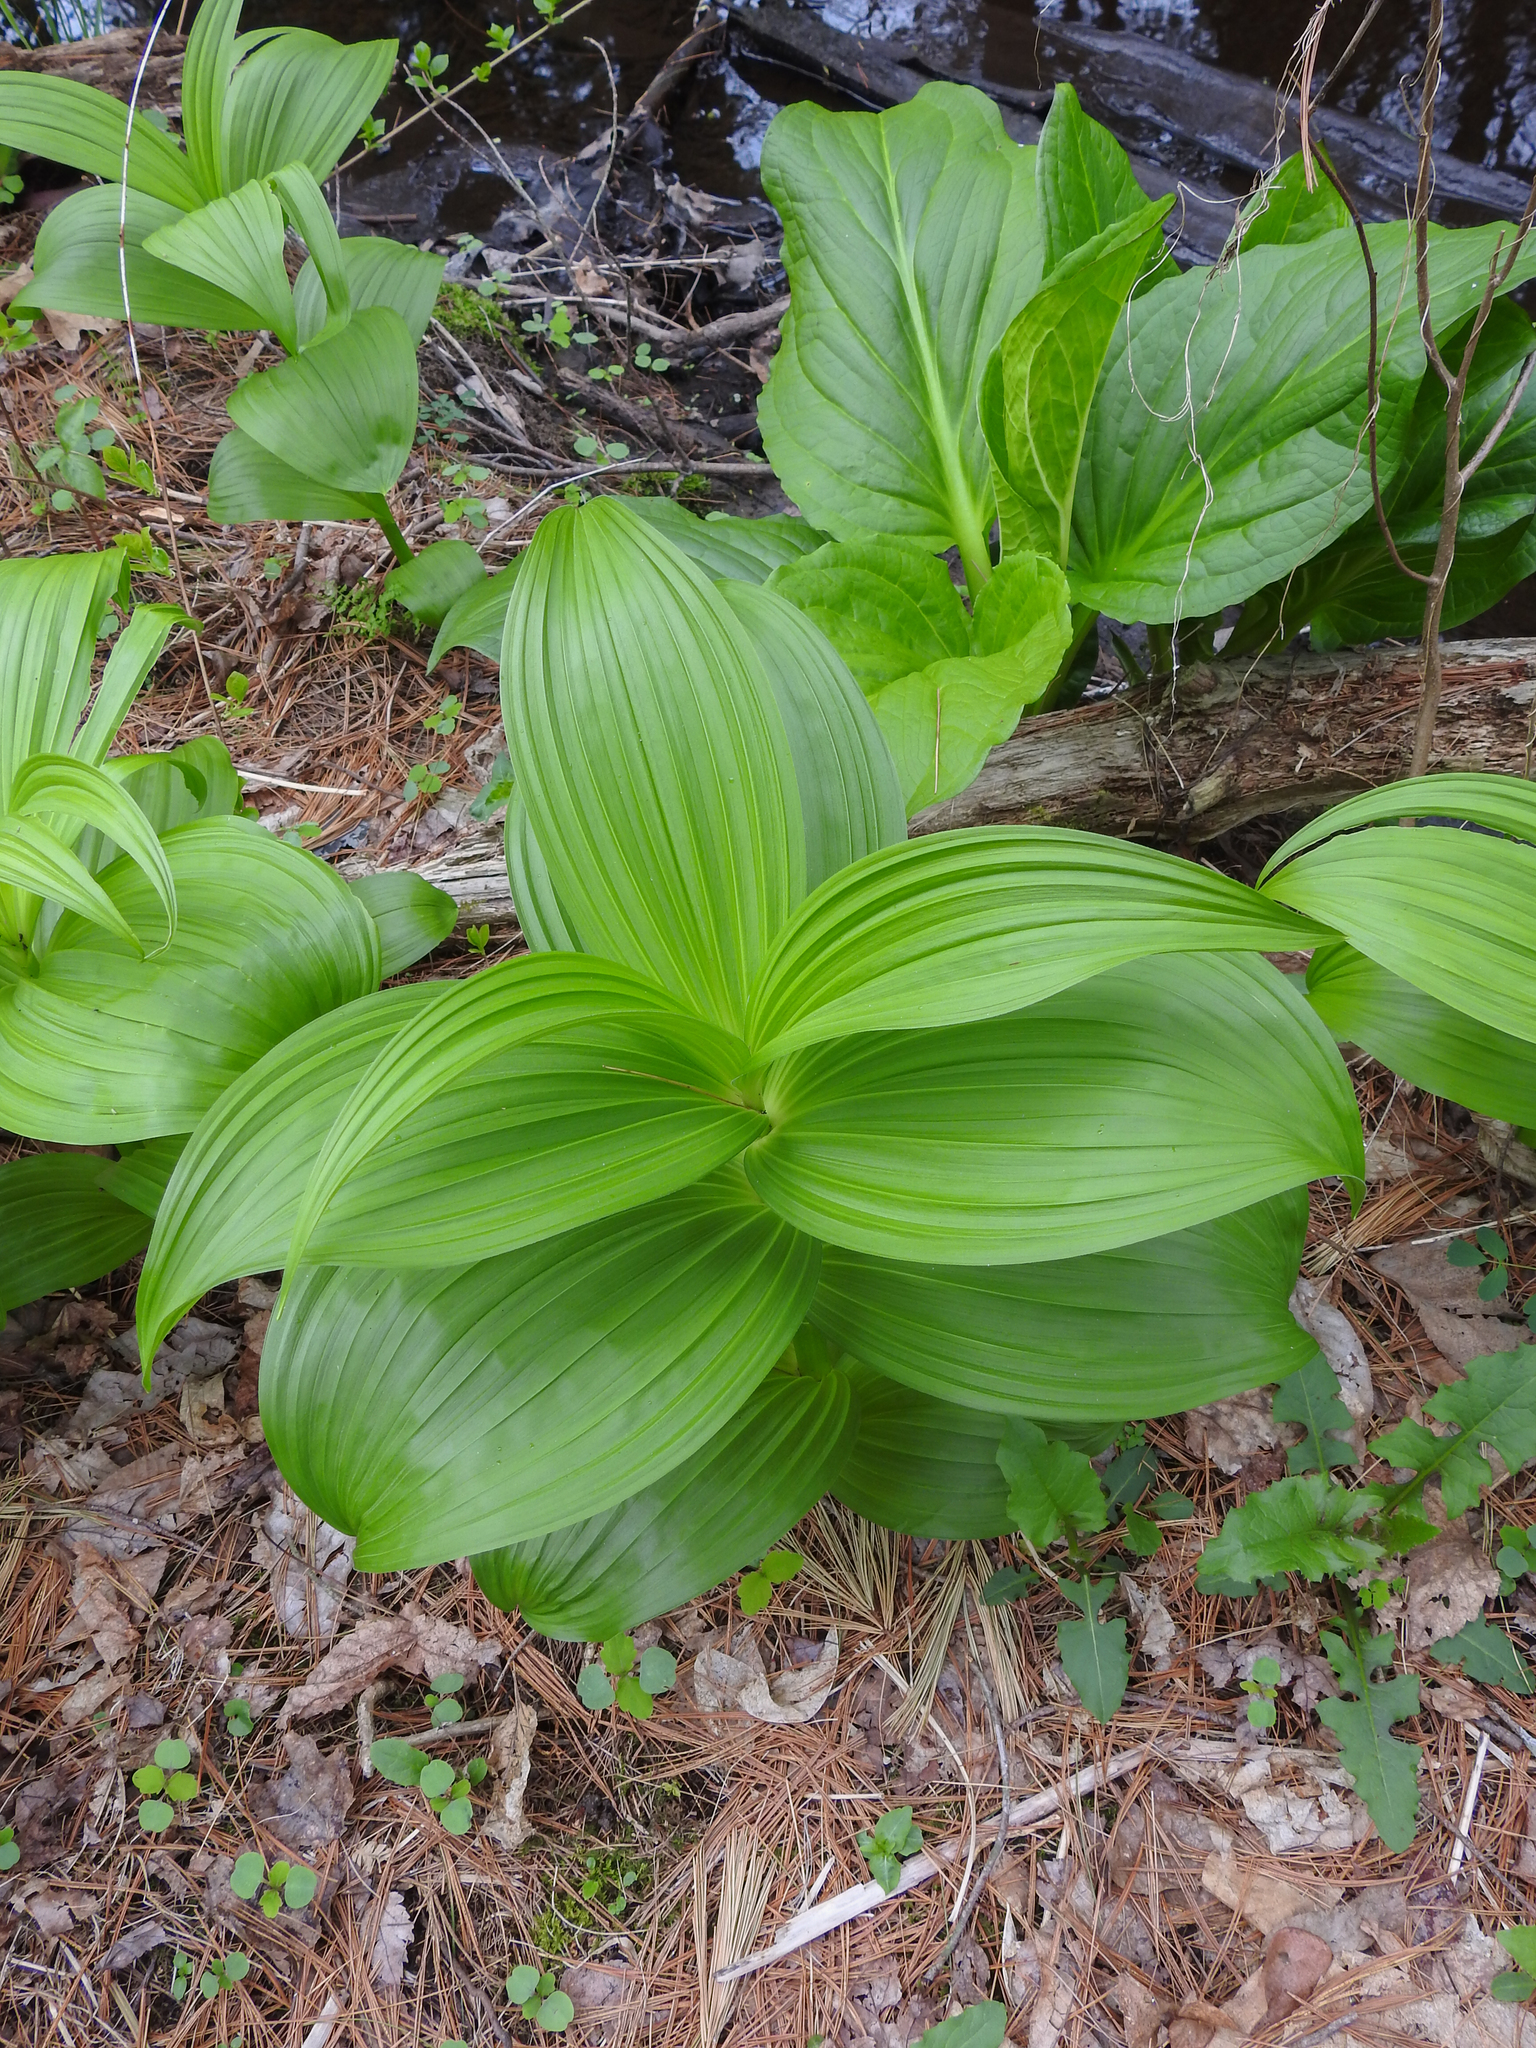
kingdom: Plantae
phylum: Tracheophyta
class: Liliopsida
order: Liliales
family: Melanthiaceae
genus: Veratrum
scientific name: Veratrum viride
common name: American false hellebore
